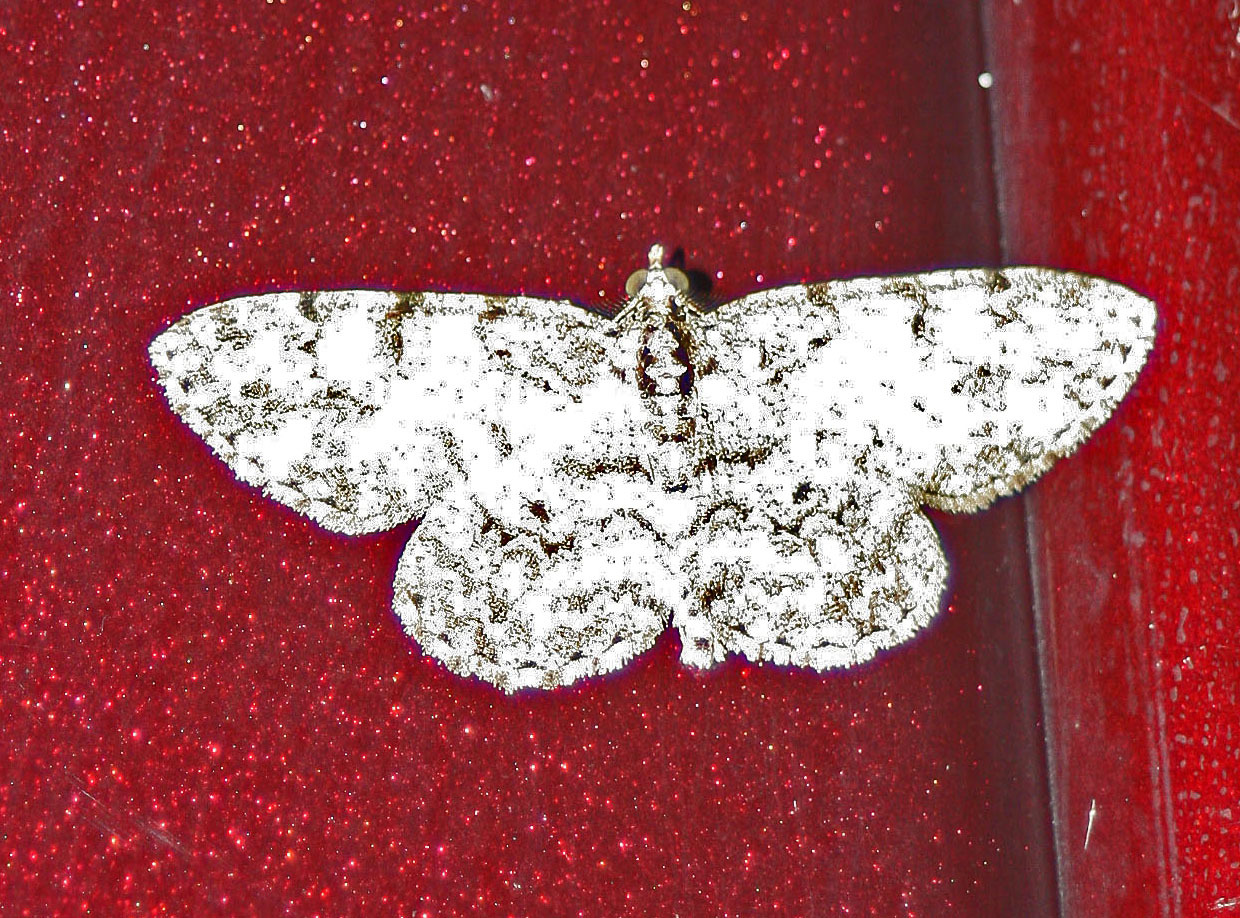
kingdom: Animalia
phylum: Arthropoda
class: Insecta
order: Lepidoptera
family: Geometridae
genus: Protoboarmia
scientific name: Protoboarmia porcelaria
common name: Porcelain gray
